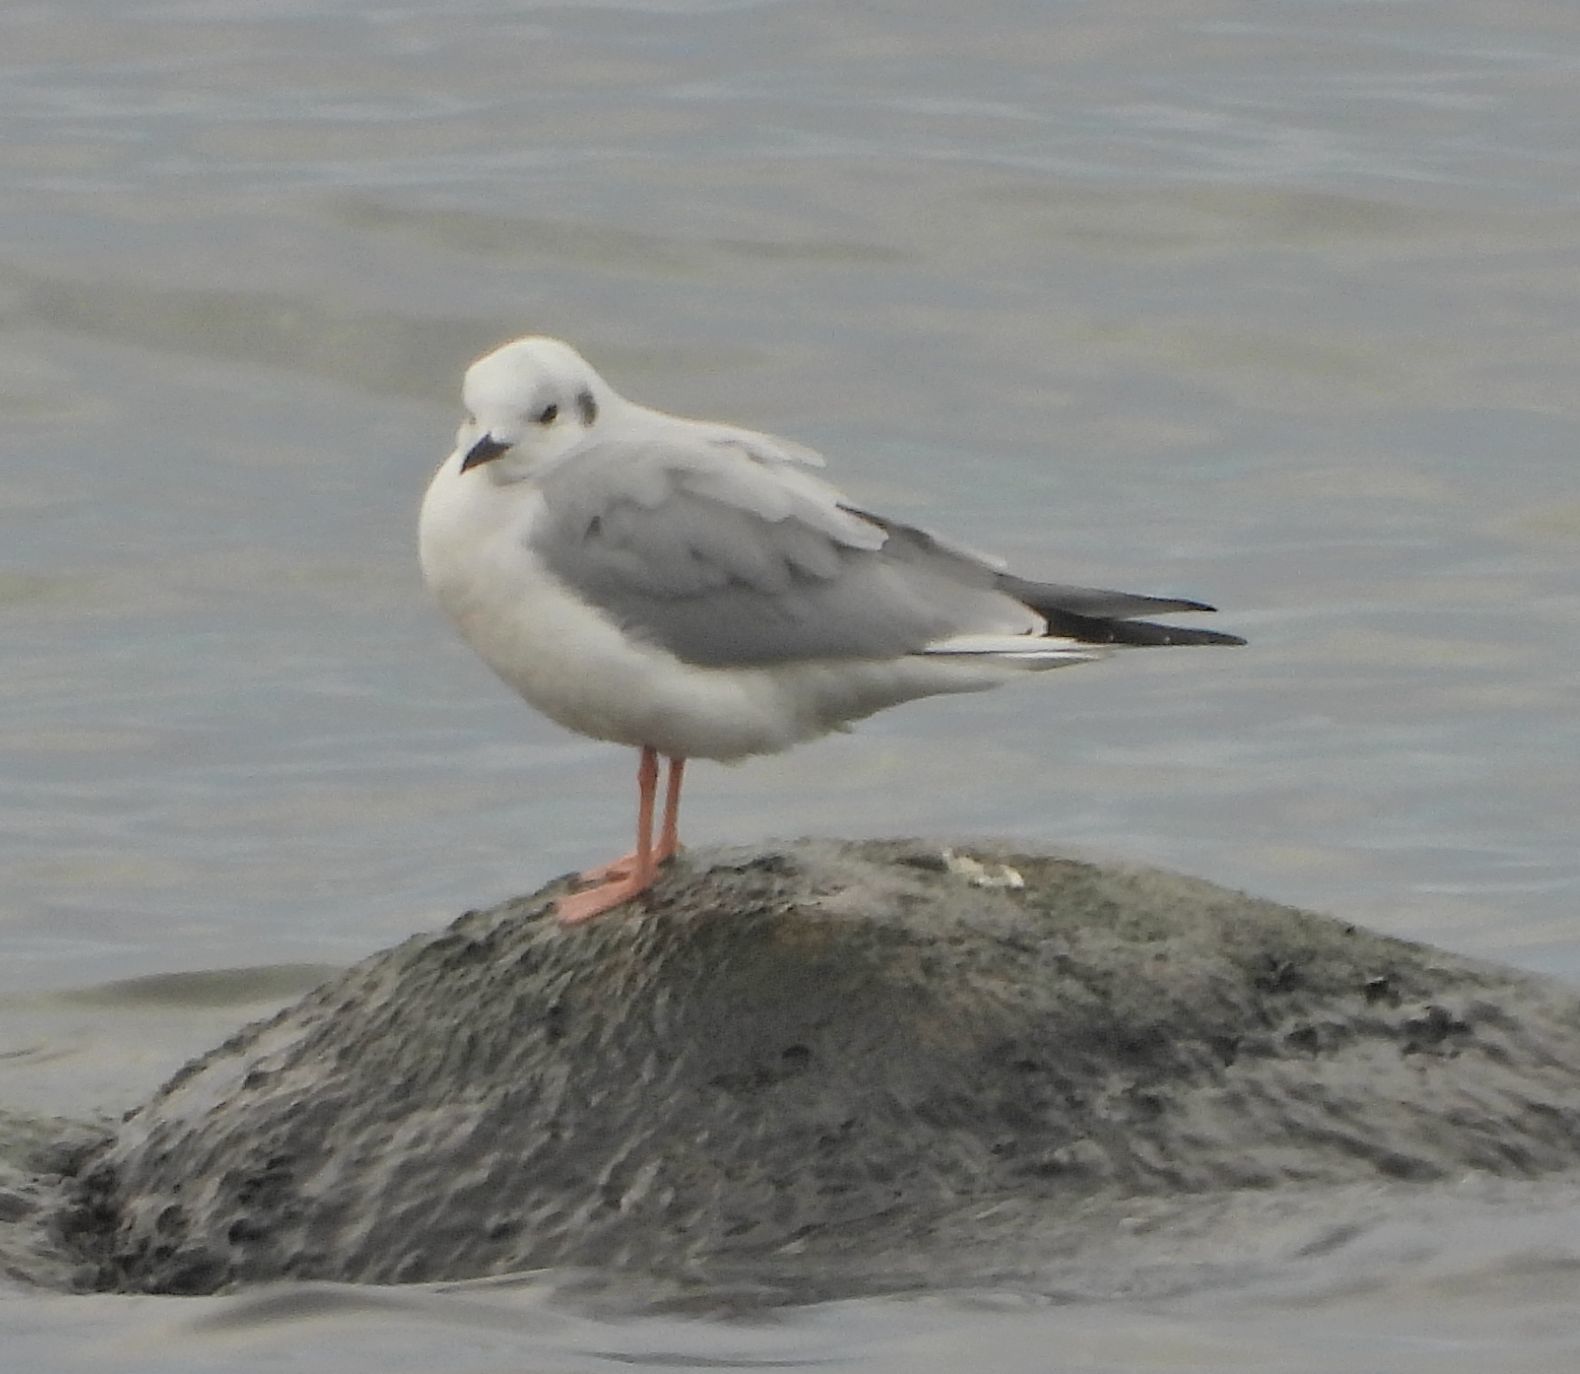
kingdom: Animalia
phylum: Chordata
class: Aves
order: Charadriiformes
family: Laridae
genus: Chroicocephalus
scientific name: Chroicocephalus philadelphia
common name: Bonaparte's gull
